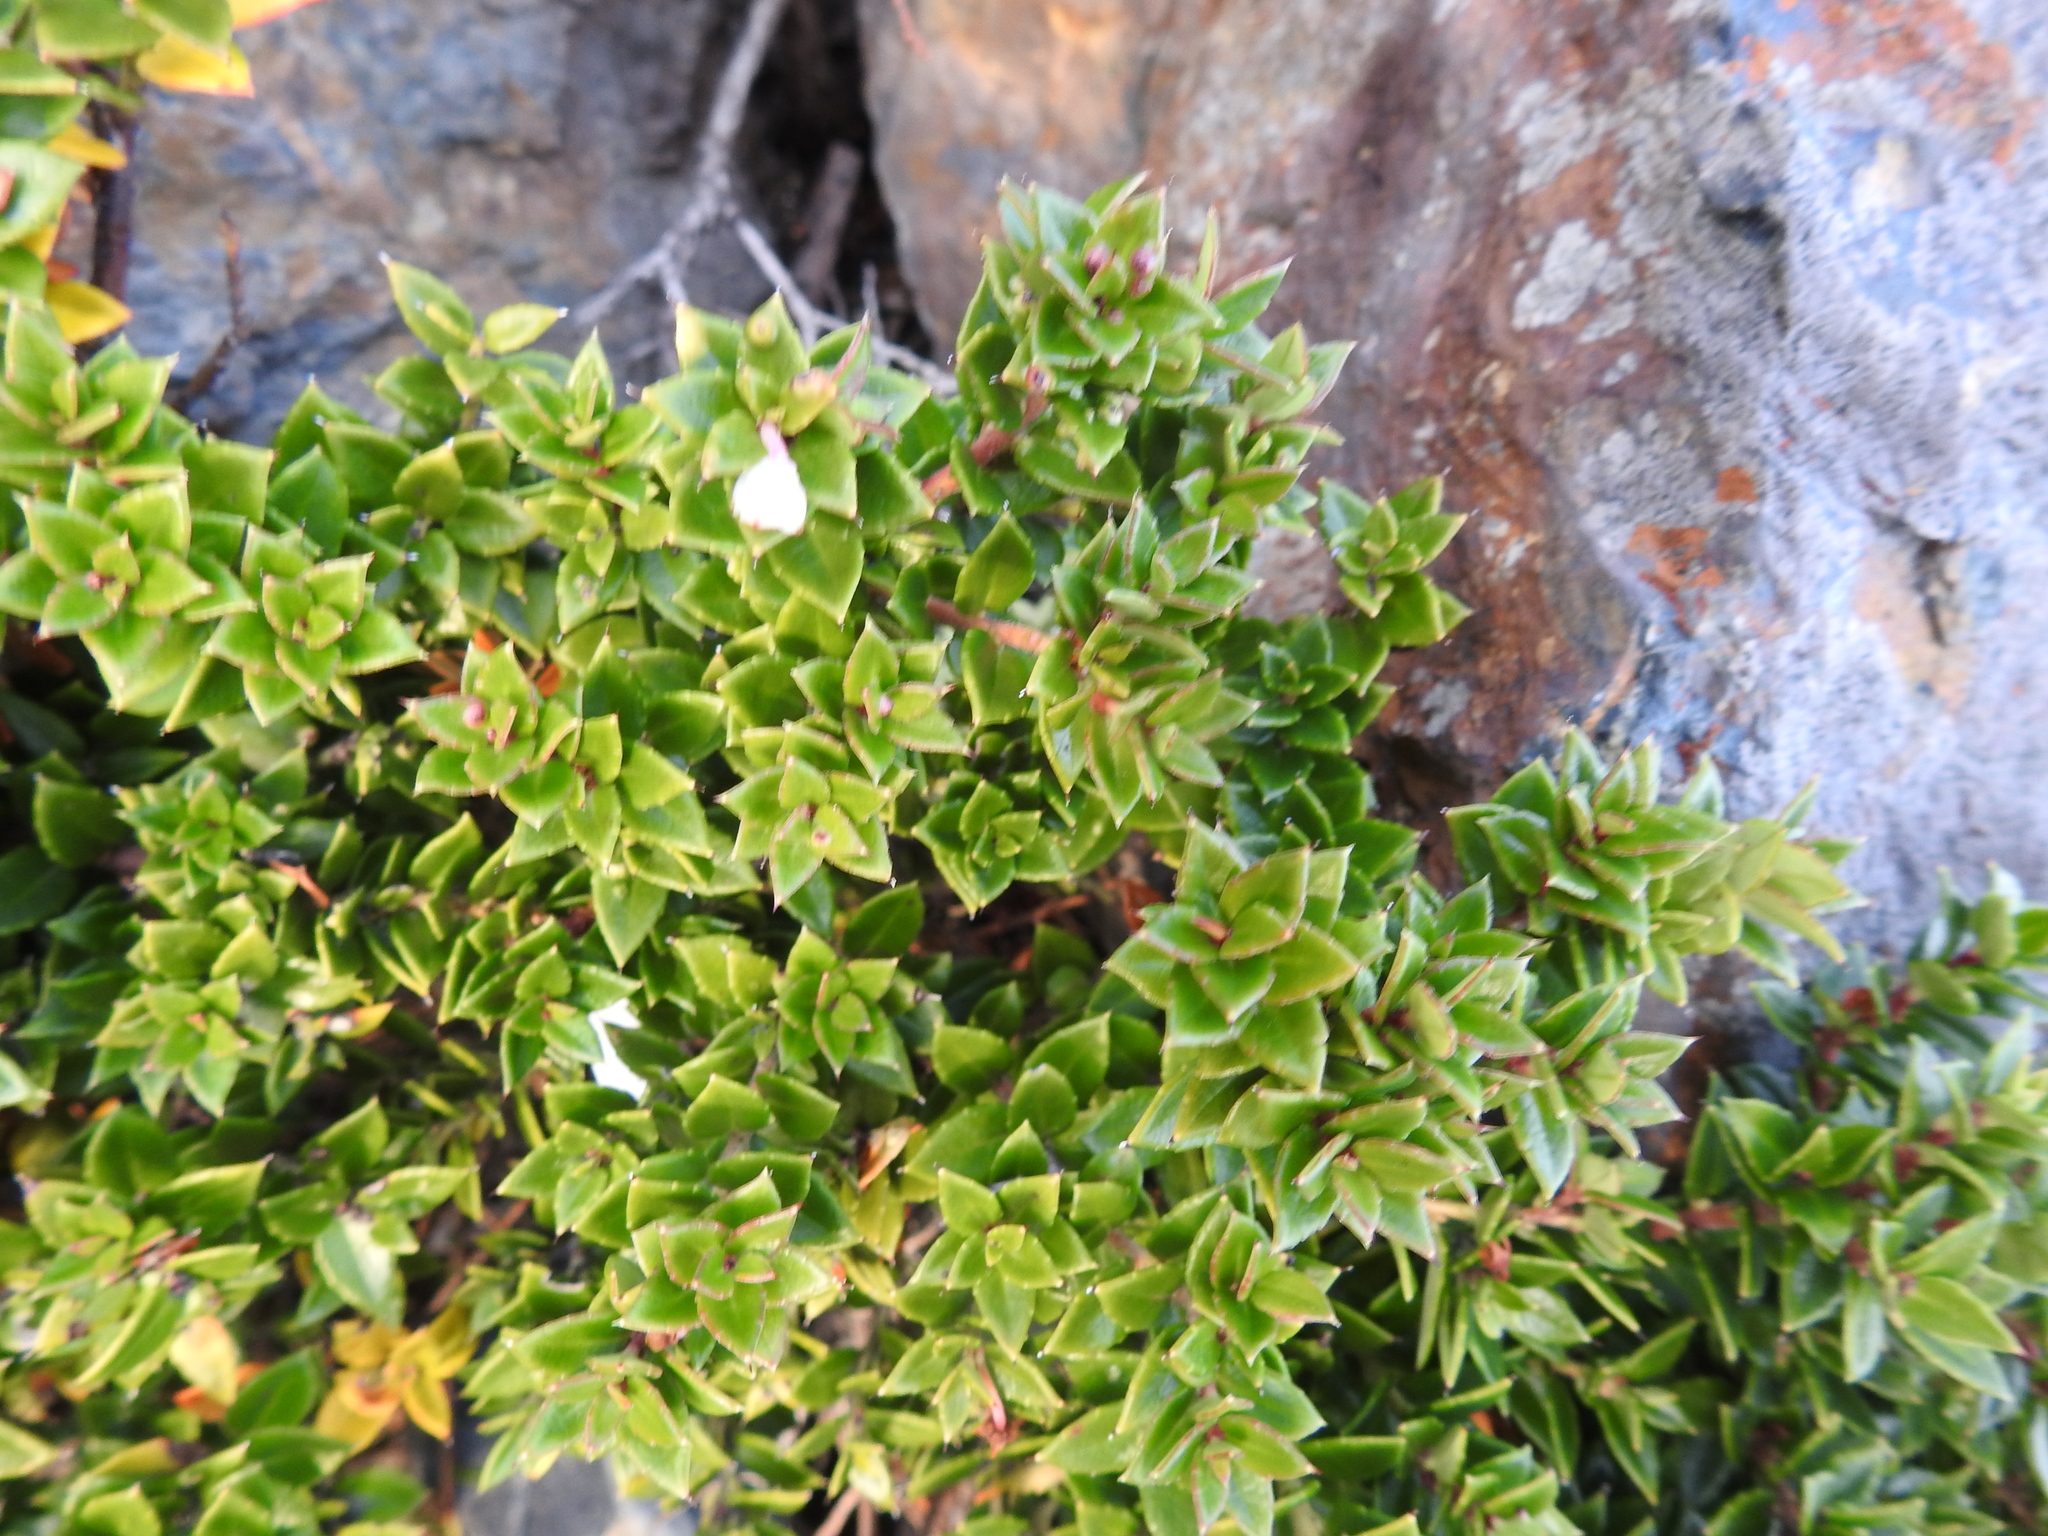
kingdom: Plantae
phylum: Tracheophyta
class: Magnoliopsida
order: Ericales
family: Ericaceae
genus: Gaultheria
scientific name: Gaultheria mucronata
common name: Prickly heath
